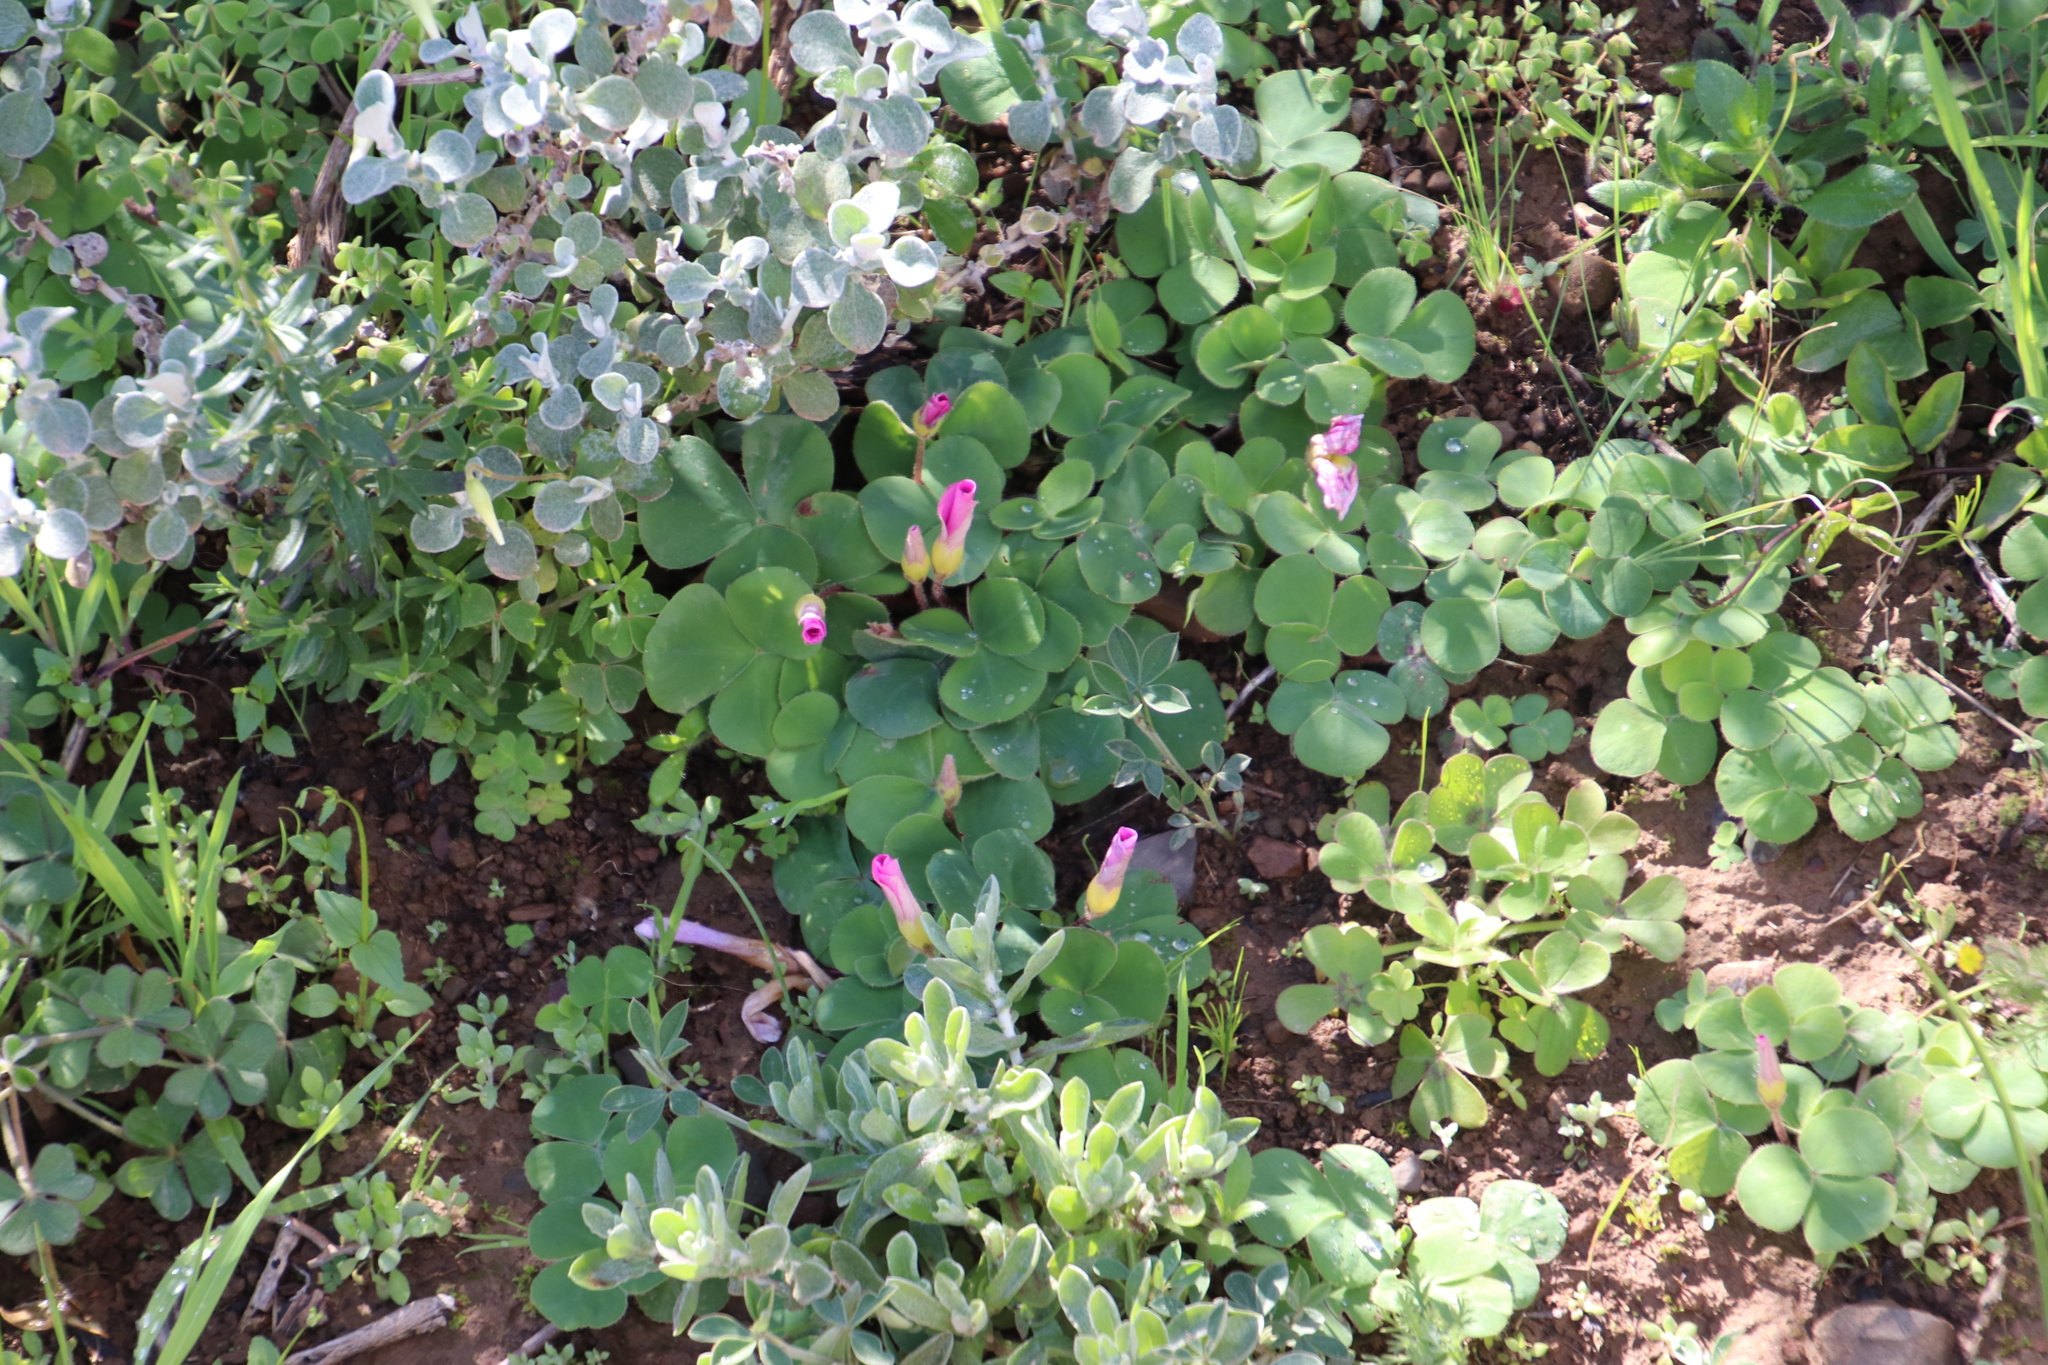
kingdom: Plantae
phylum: Tracheophyta
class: Magnoliopsida
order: Oxalidales
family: Oxalidaceae
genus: Oxalis
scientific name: Oxalis purpurea
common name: Purple woodsorrel
